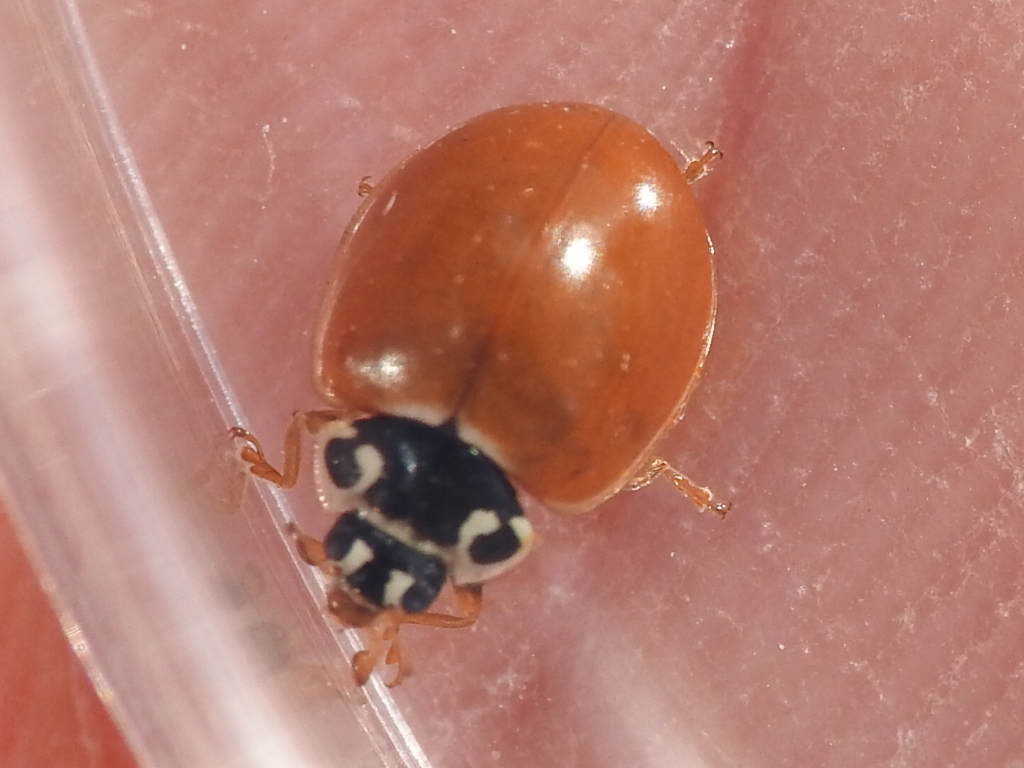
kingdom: Animalia
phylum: Arthropoda
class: Insecta
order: Coleoptera
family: Coccinellidae
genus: Cycloneda
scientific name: Cycloneda munda
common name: Polished lady beetle
